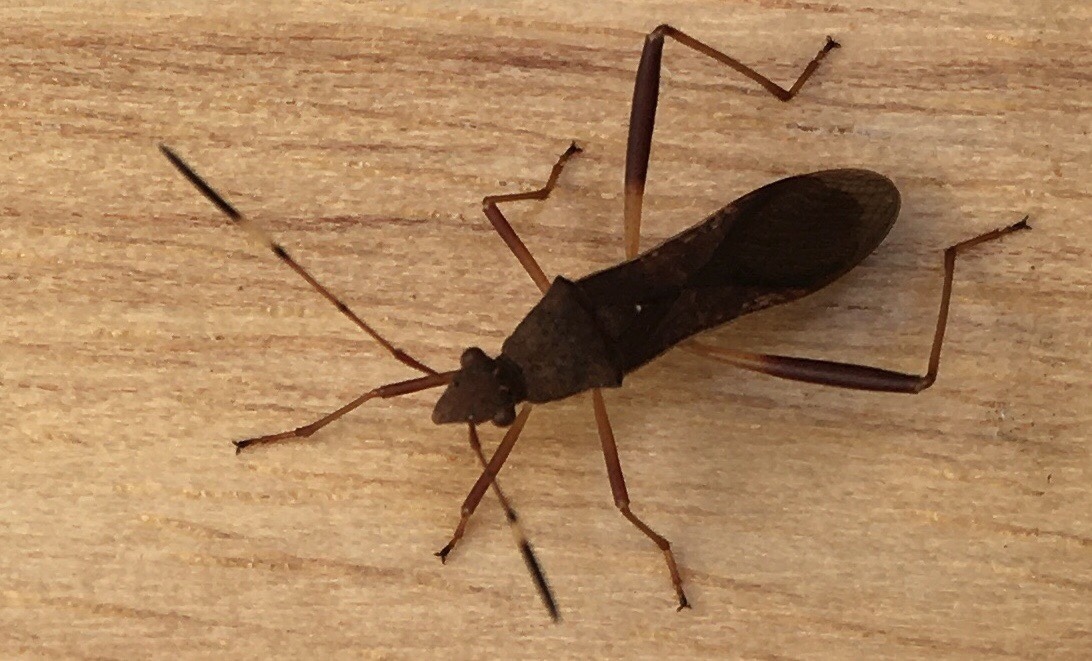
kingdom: Animalia
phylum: Arthropoda
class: Insecta
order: Hemiptera
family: Alydidae
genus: Megalotomus
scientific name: Megalotomus quinquespinosus
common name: Lupine bug
